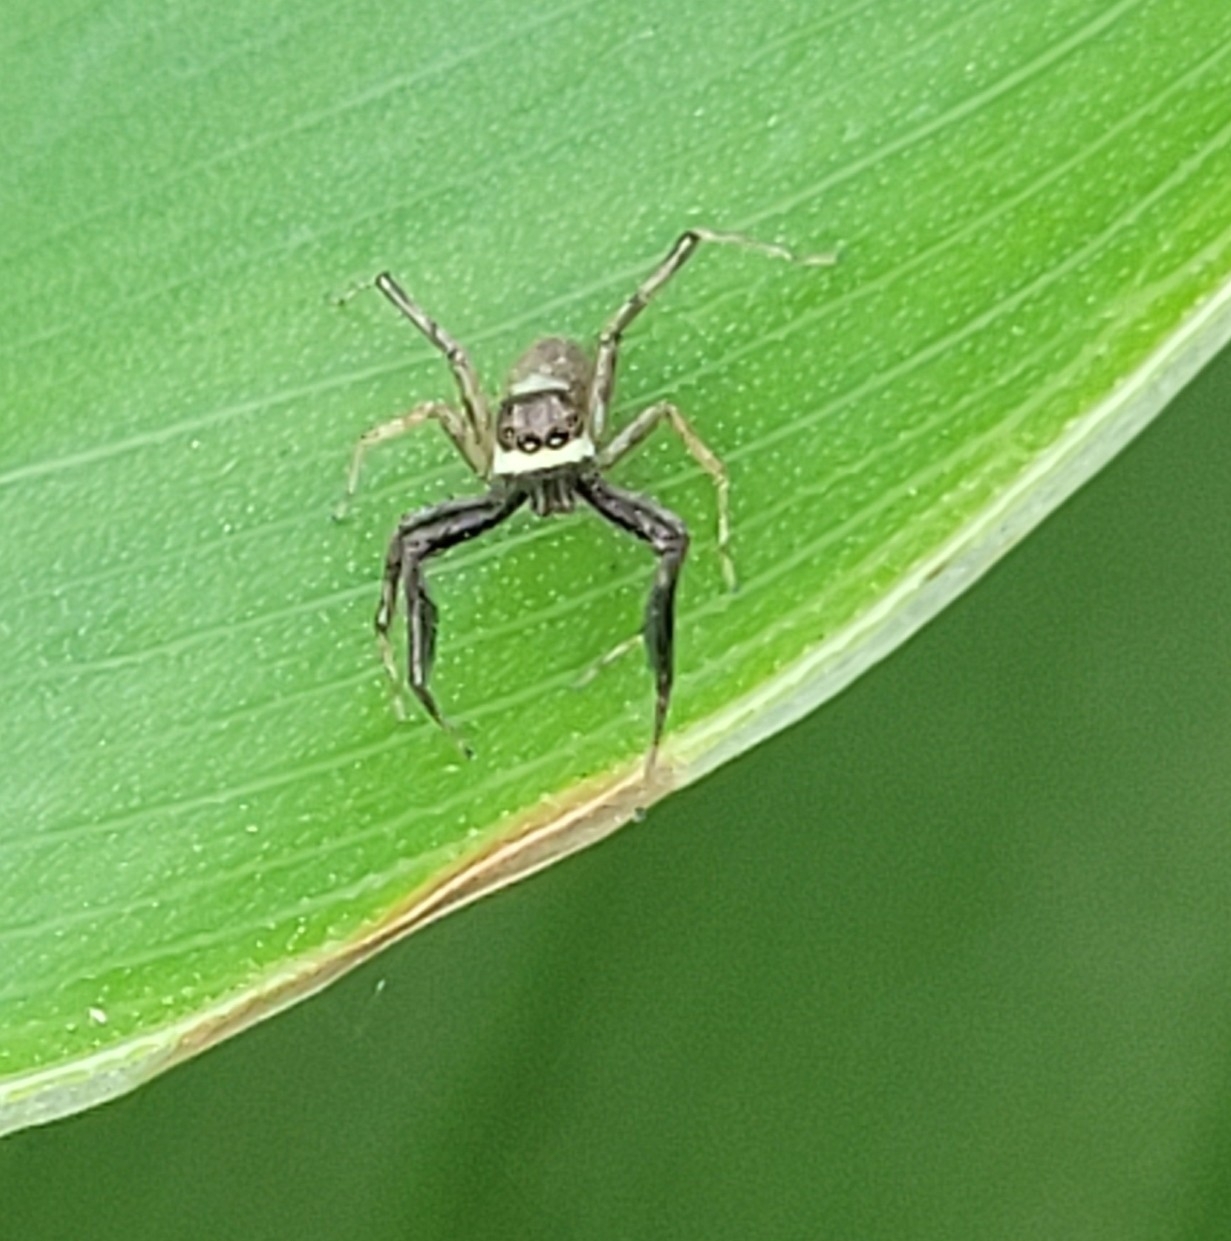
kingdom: Animalia
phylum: Arthropoda
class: Arachnida
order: Araneae
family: Salticidae
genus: Brettus
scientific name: Brettus cingulatus
